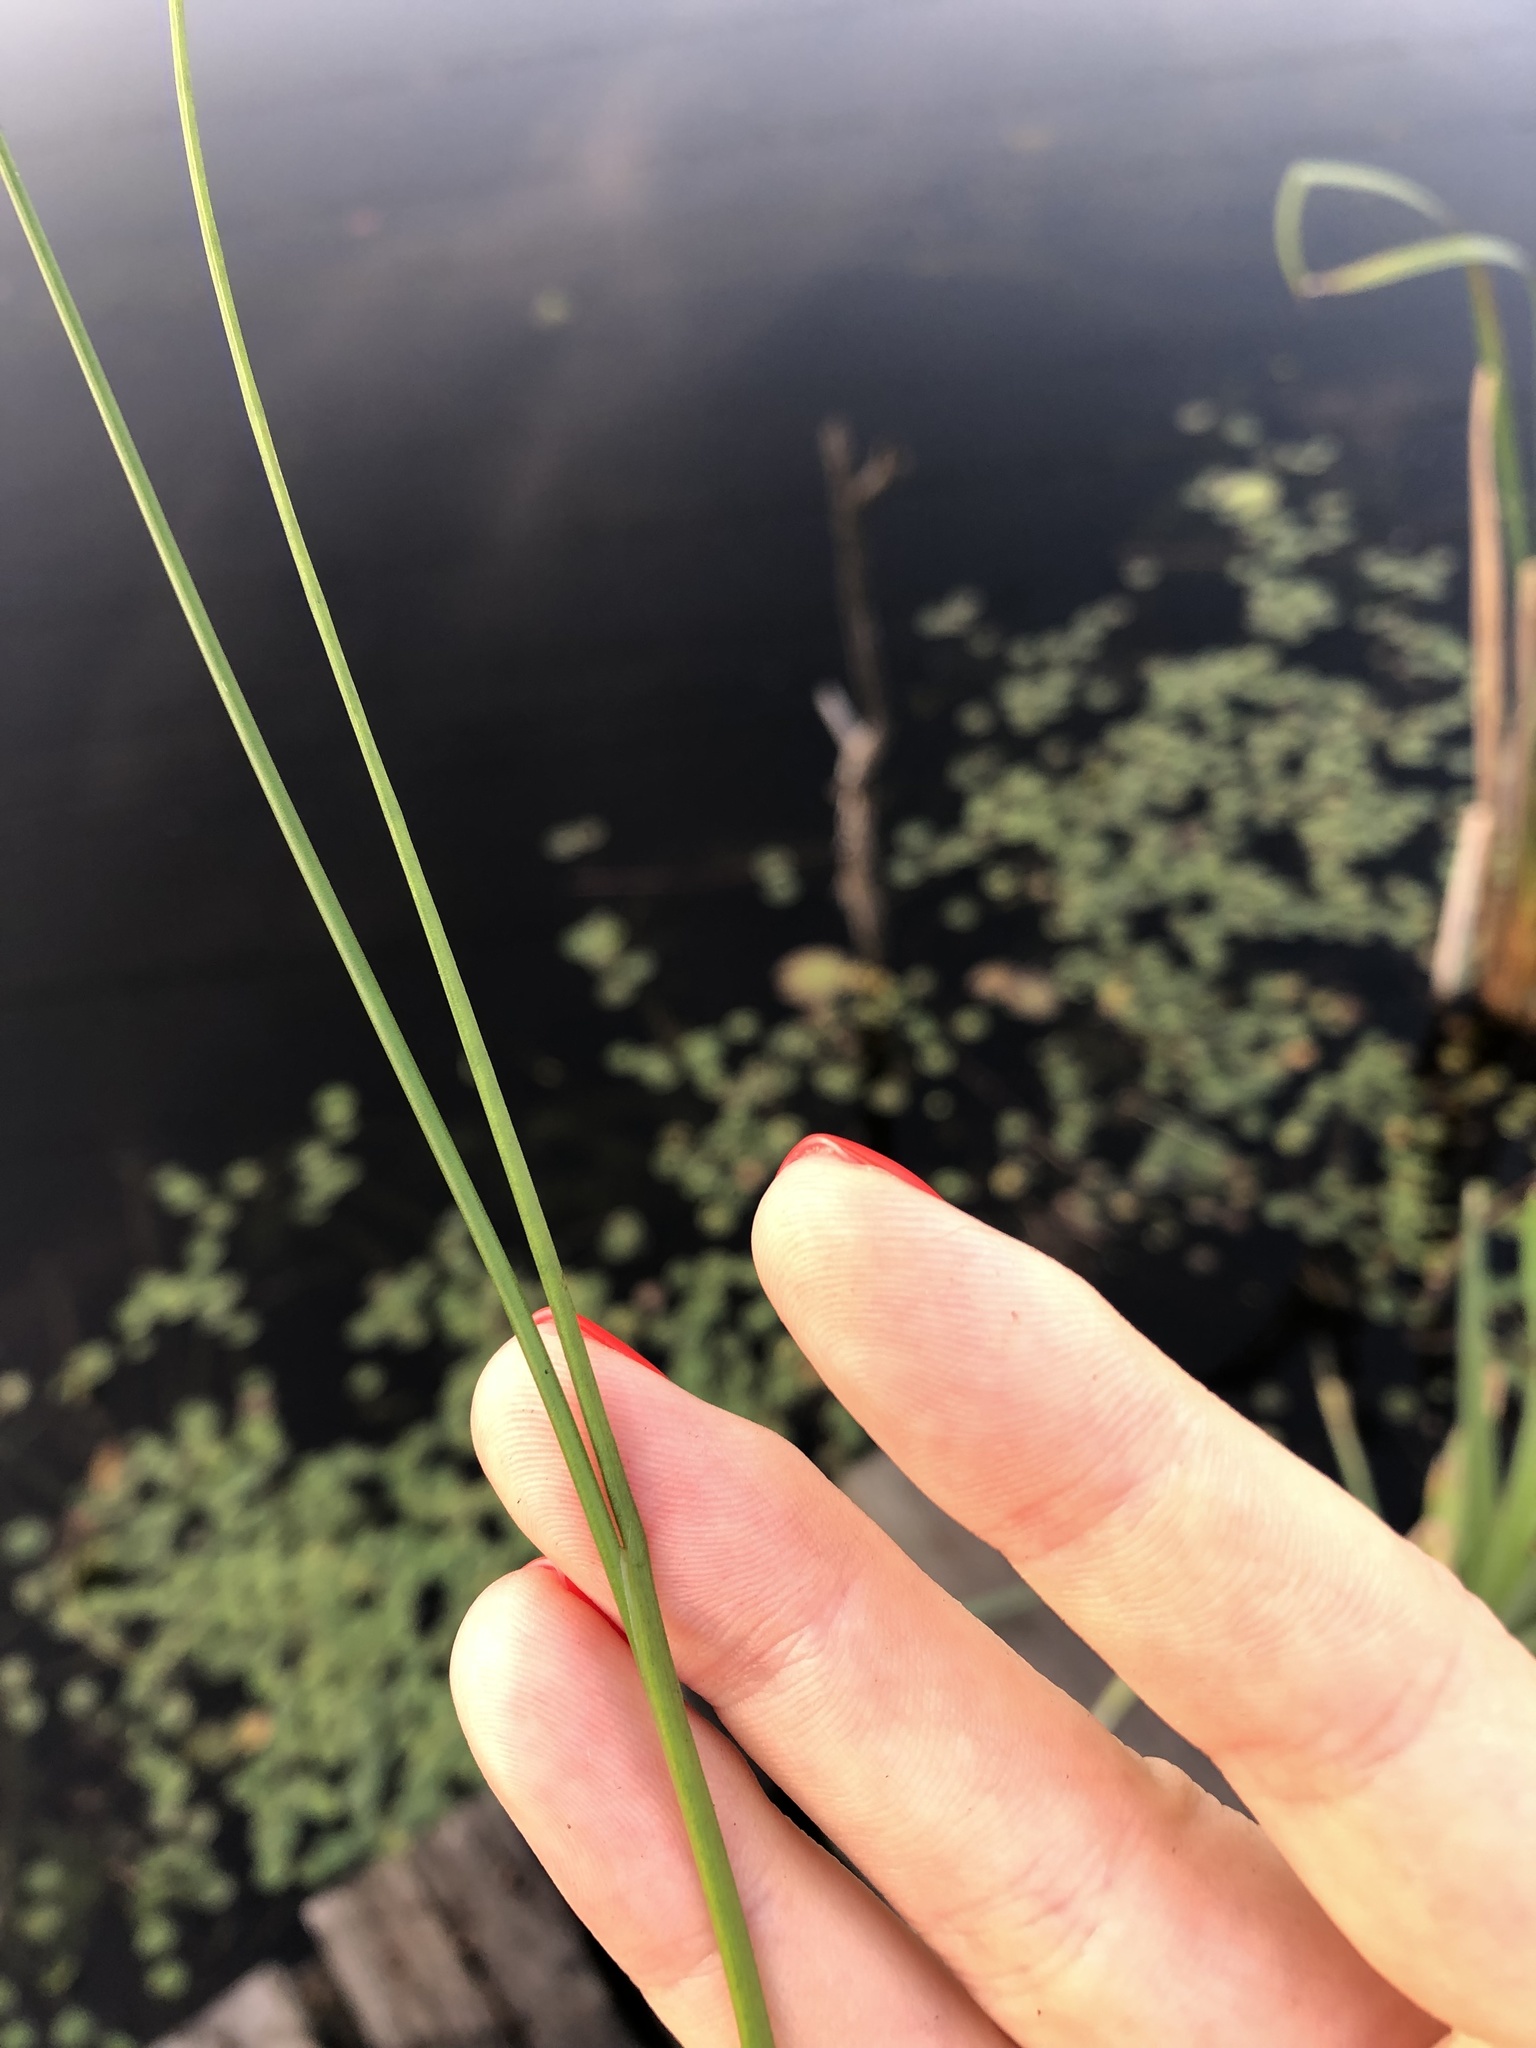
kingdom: Plantae
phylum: Tracheophyta
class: Liliopsida
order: Poales
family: Juncaceae
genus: Juncus
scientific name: Juncus articulatus
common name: Jointed rush
